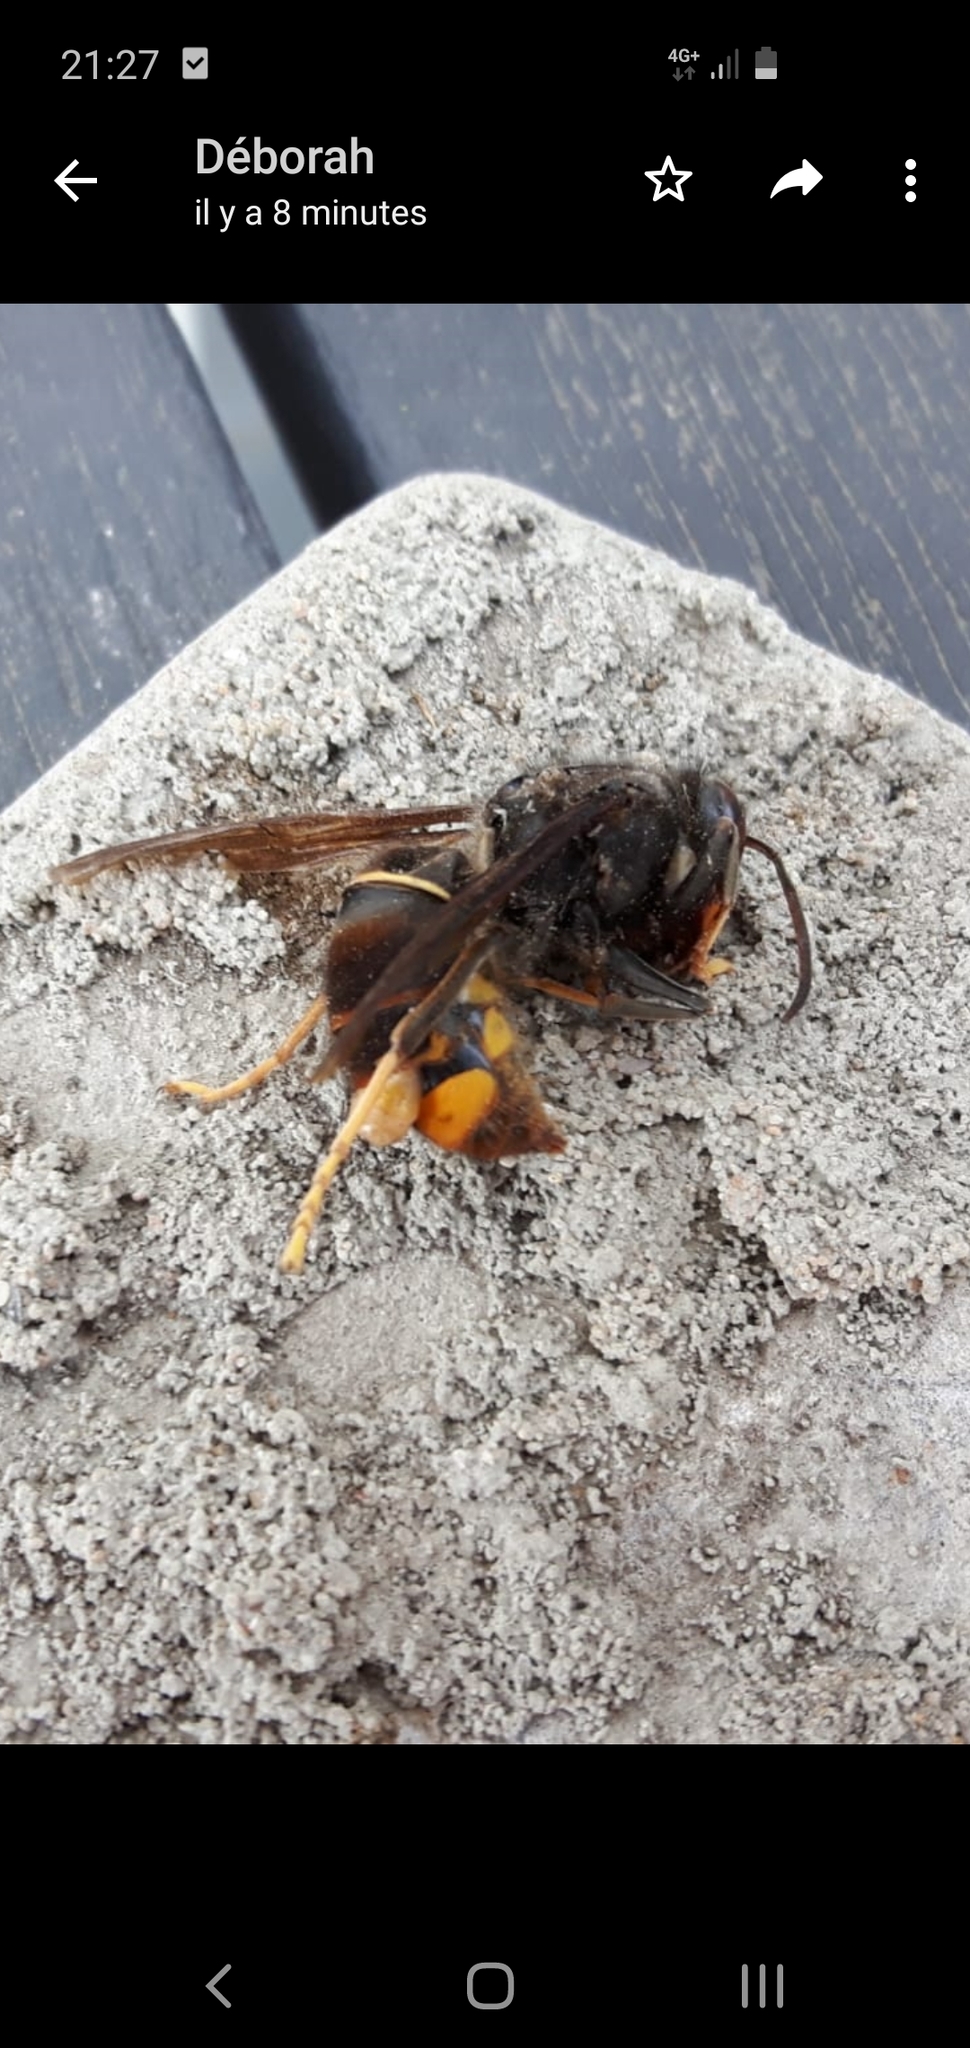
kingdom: Animalia
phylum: Arthropoda
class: Insecta
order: Hymenoptera
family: Vespidae
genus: Vespa
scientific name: Vespa velutina
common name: Asian hornet
